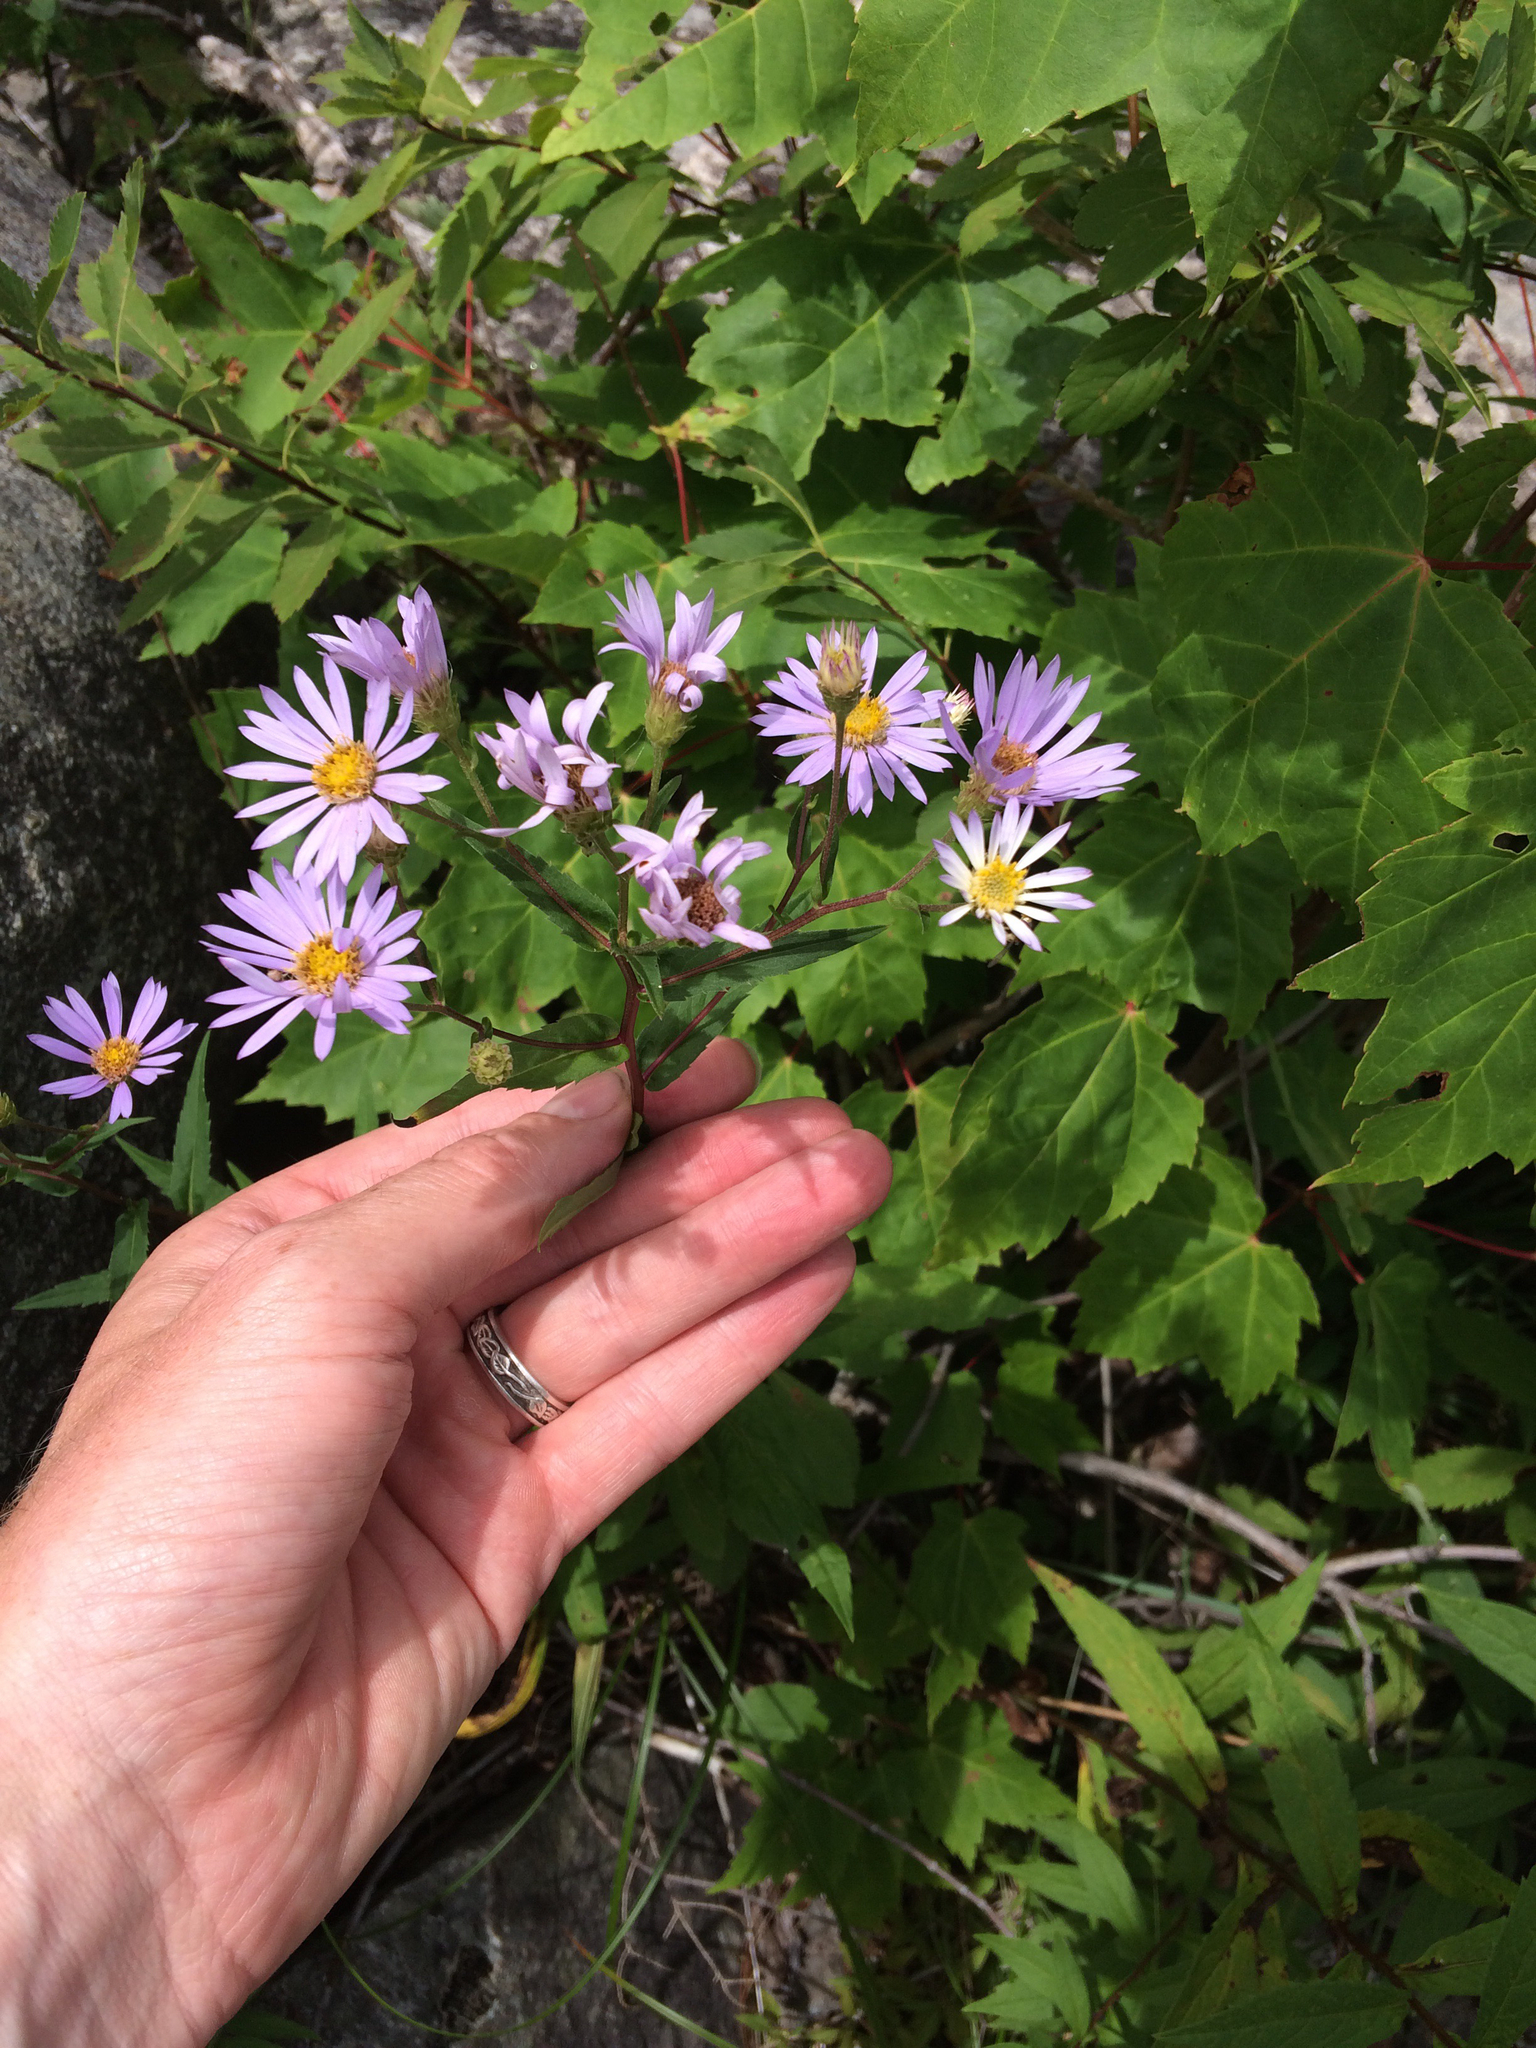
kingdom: Plantae
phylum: Tracheophyta
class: Magnoliopsida
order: Asterales
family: Asteraceae
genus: Eurybia
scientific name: Eurybia radula
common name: Low rough aster
